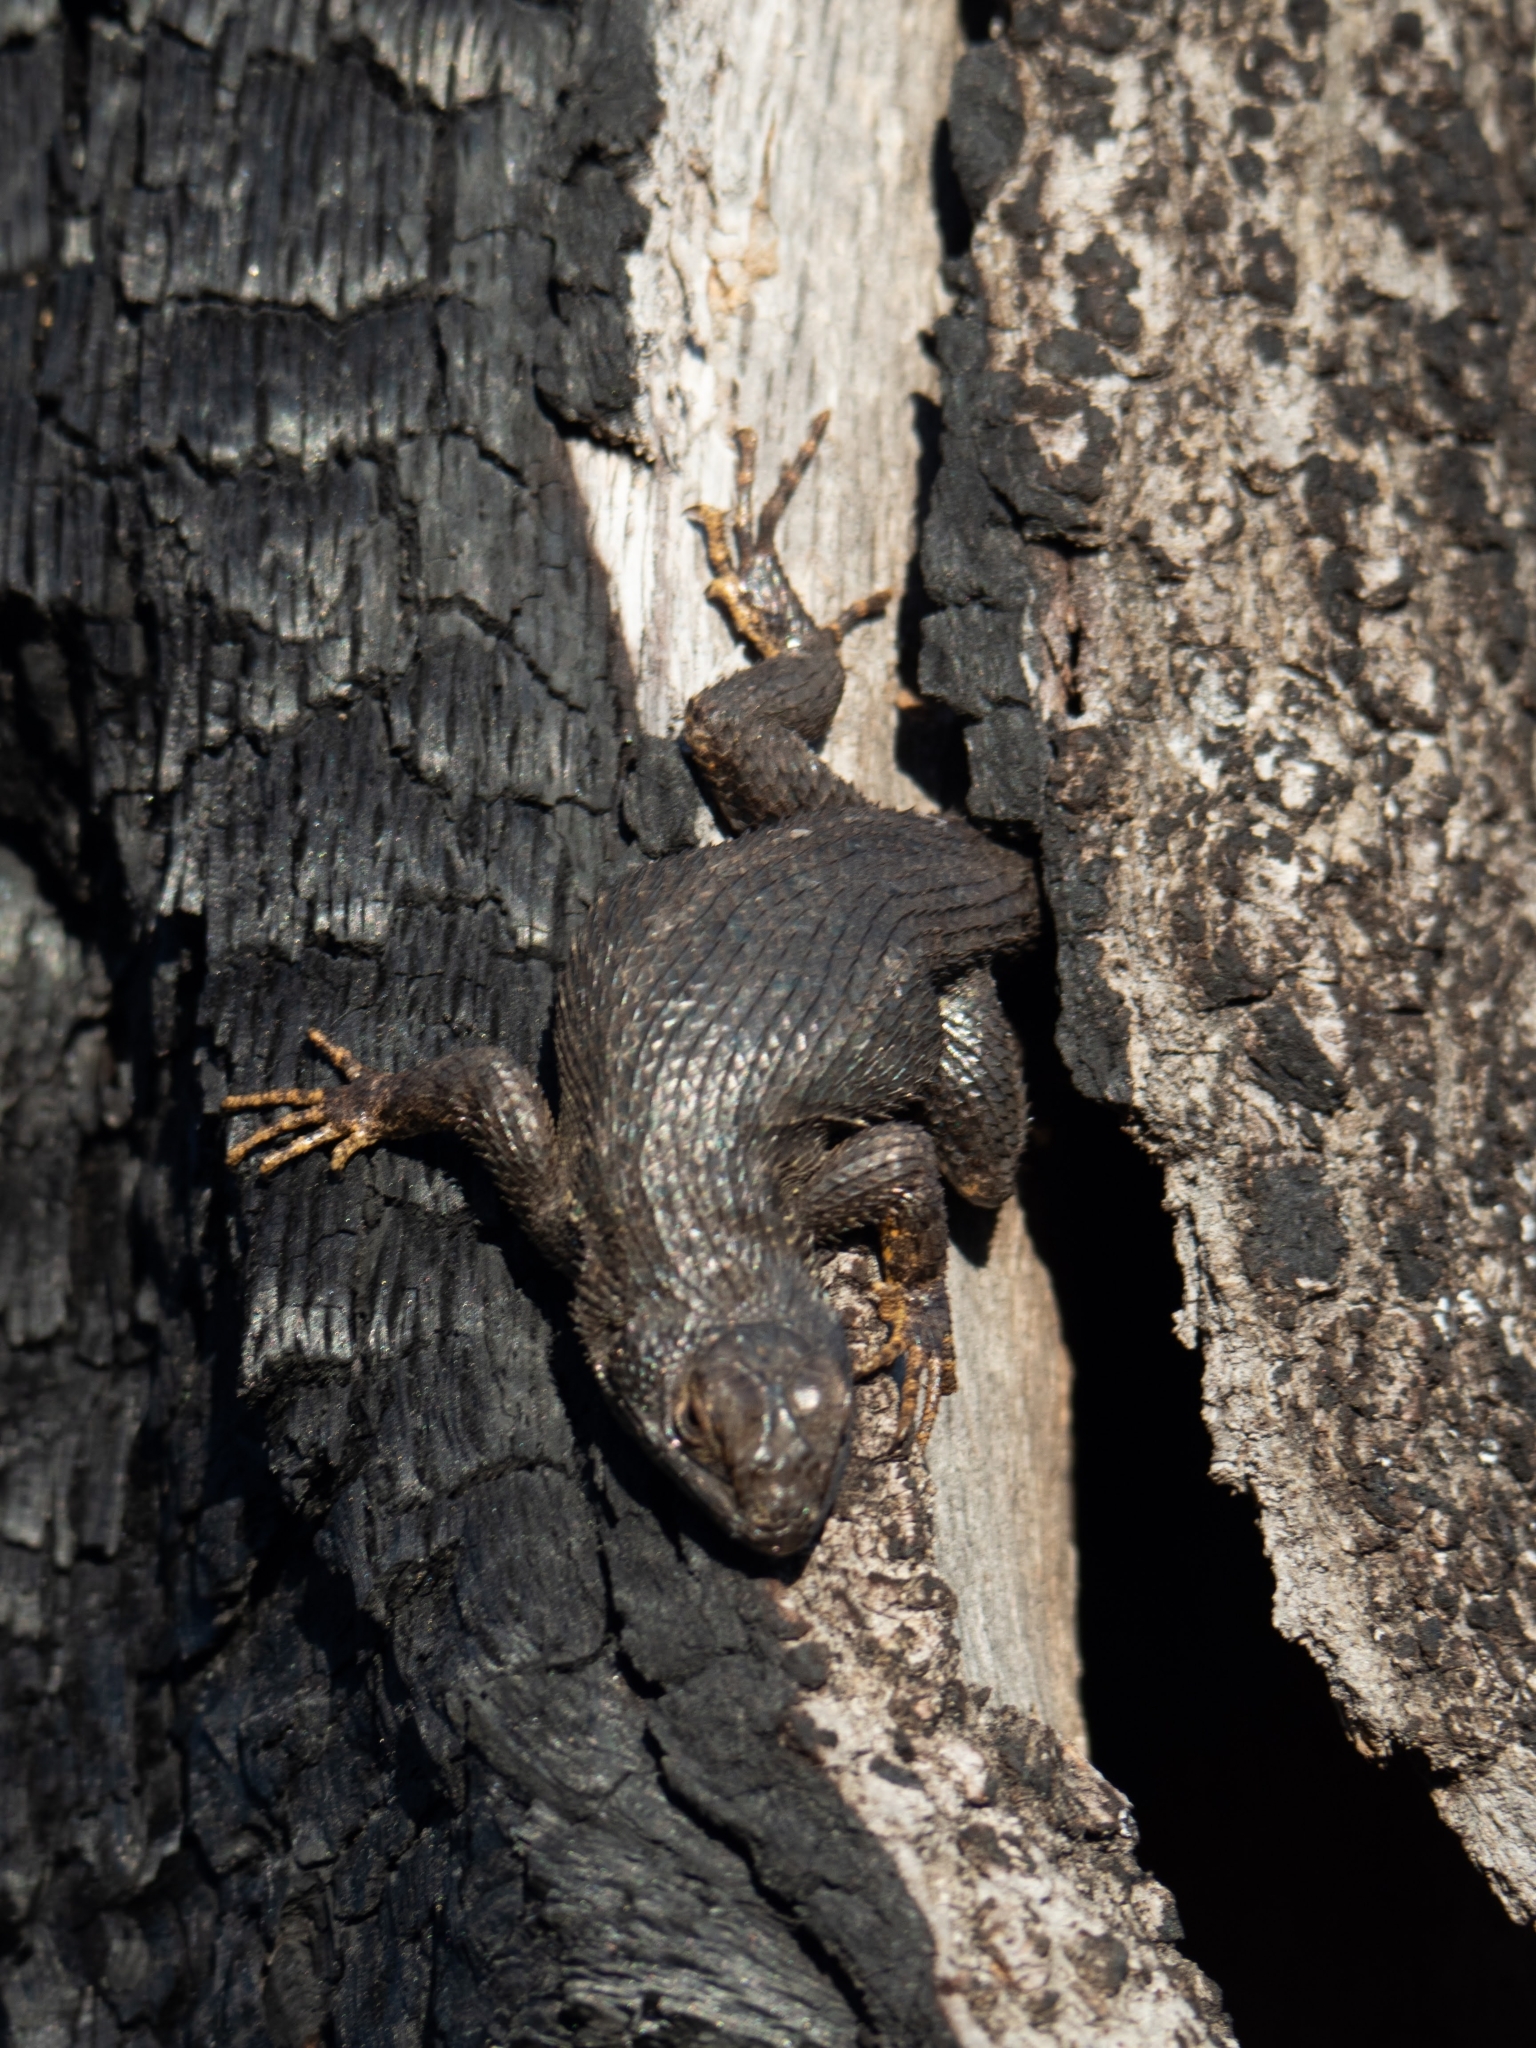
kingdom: Animalia
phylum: Chordata
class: Squamata
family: Phrynosomatidae
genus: Sceloporus
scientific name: Sceloporus occidentalis
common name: Western fence lizard
